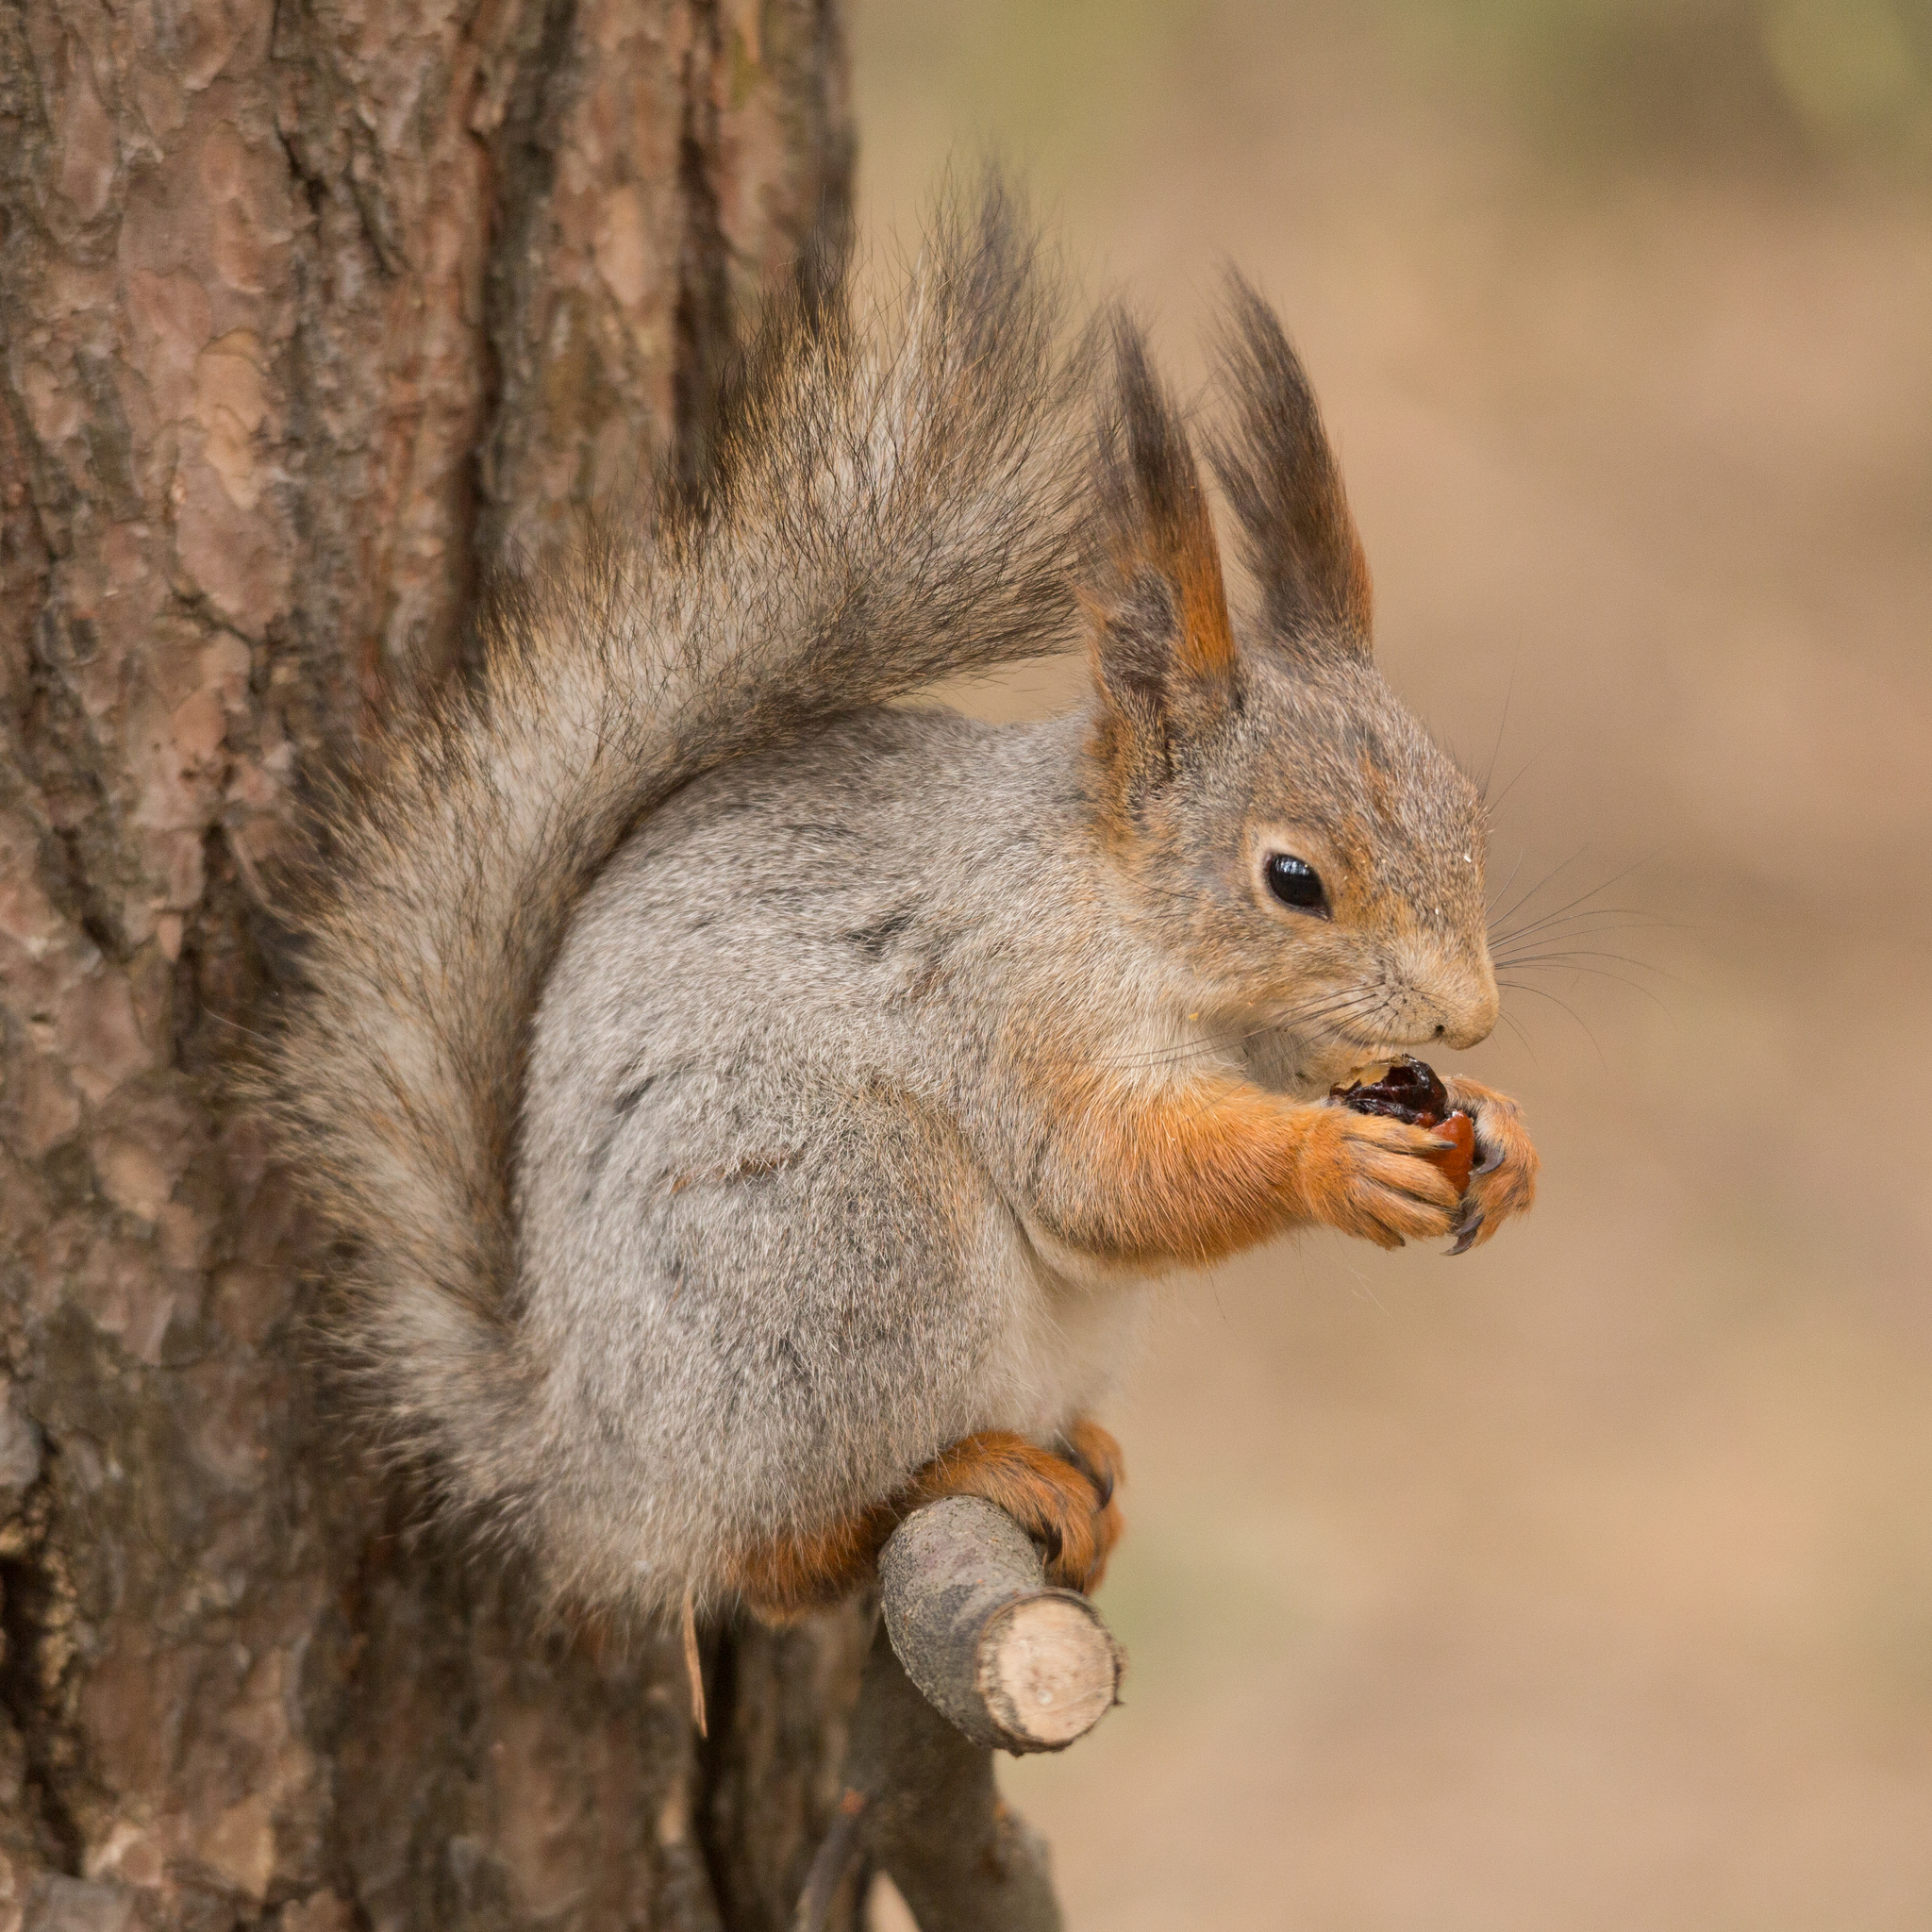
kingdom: Animalia
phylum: Chordata
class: Mammalia
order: Rodentia
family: Sciuridae
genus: Sciurus
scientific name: Sciurus vulgaris
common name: Eurasian red squirrel
